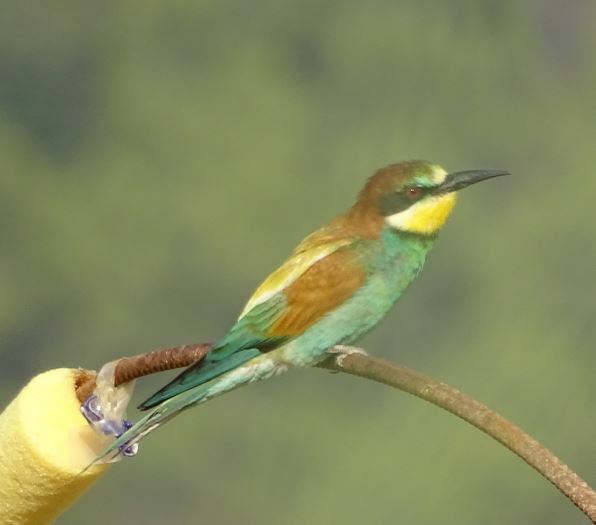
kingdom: Animalia
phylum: Chordata
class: Aves
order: Coraciiformes
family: Meropidae
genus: Merops
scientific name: Merops apiaster
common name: European bee-eater
